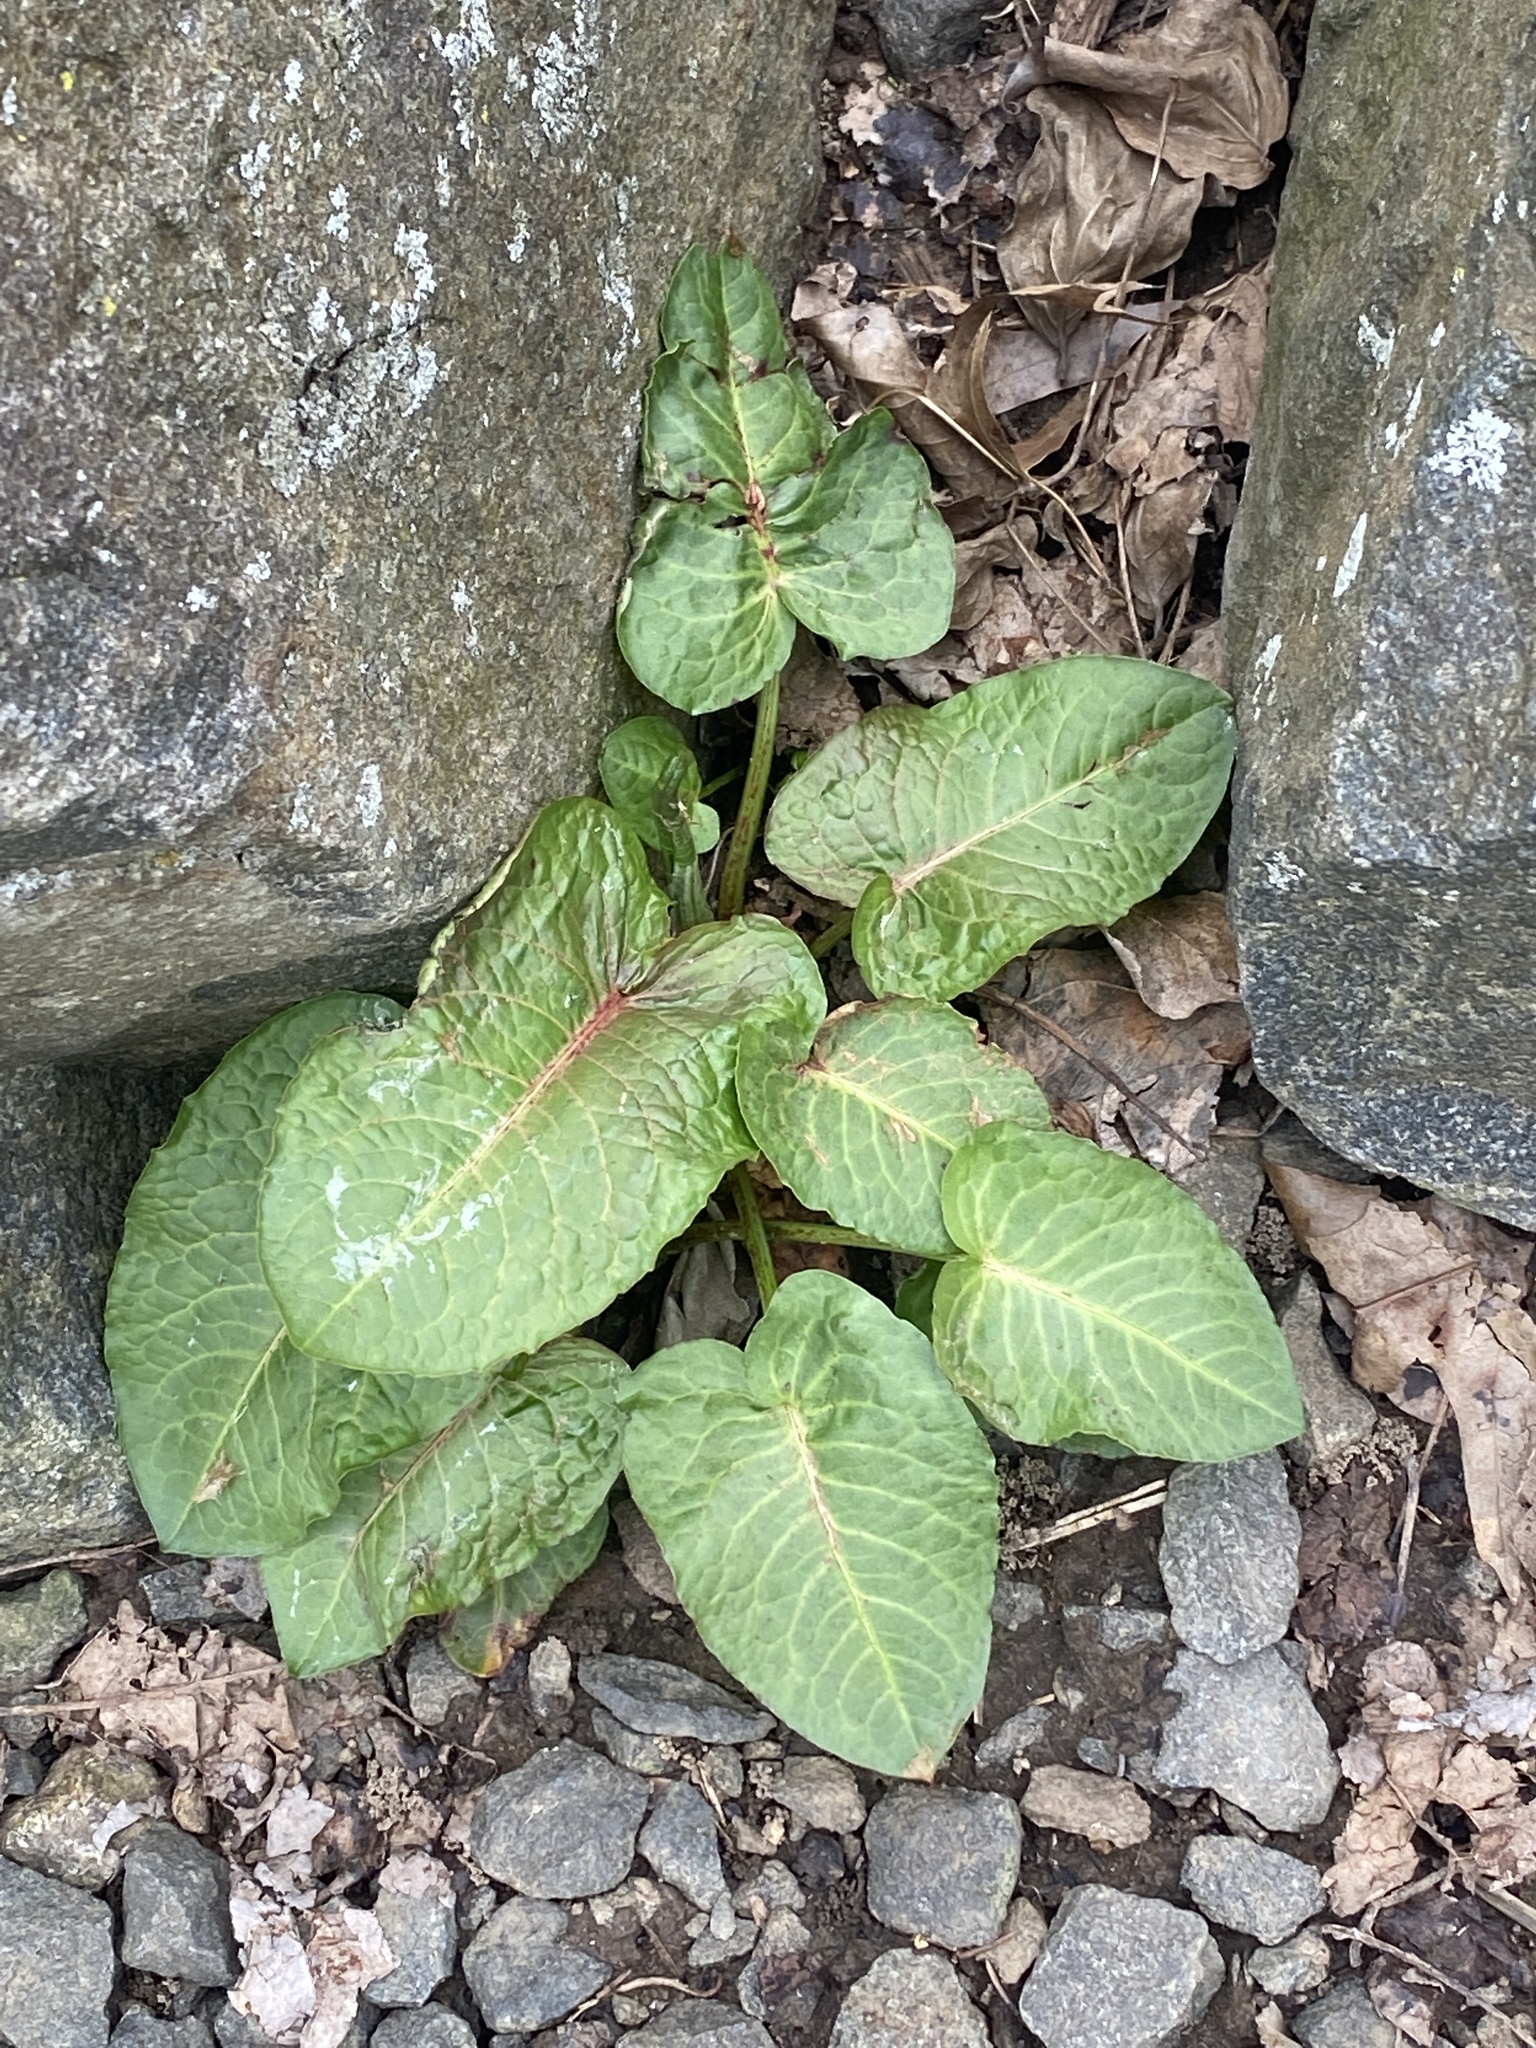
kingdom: Plantae
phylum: Tracheophyta
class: Magnoliopsida
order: Caryophyllales
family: Polygonaceae
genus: Rumex
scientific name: Rumex obtusifolius
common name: Bitter dock
